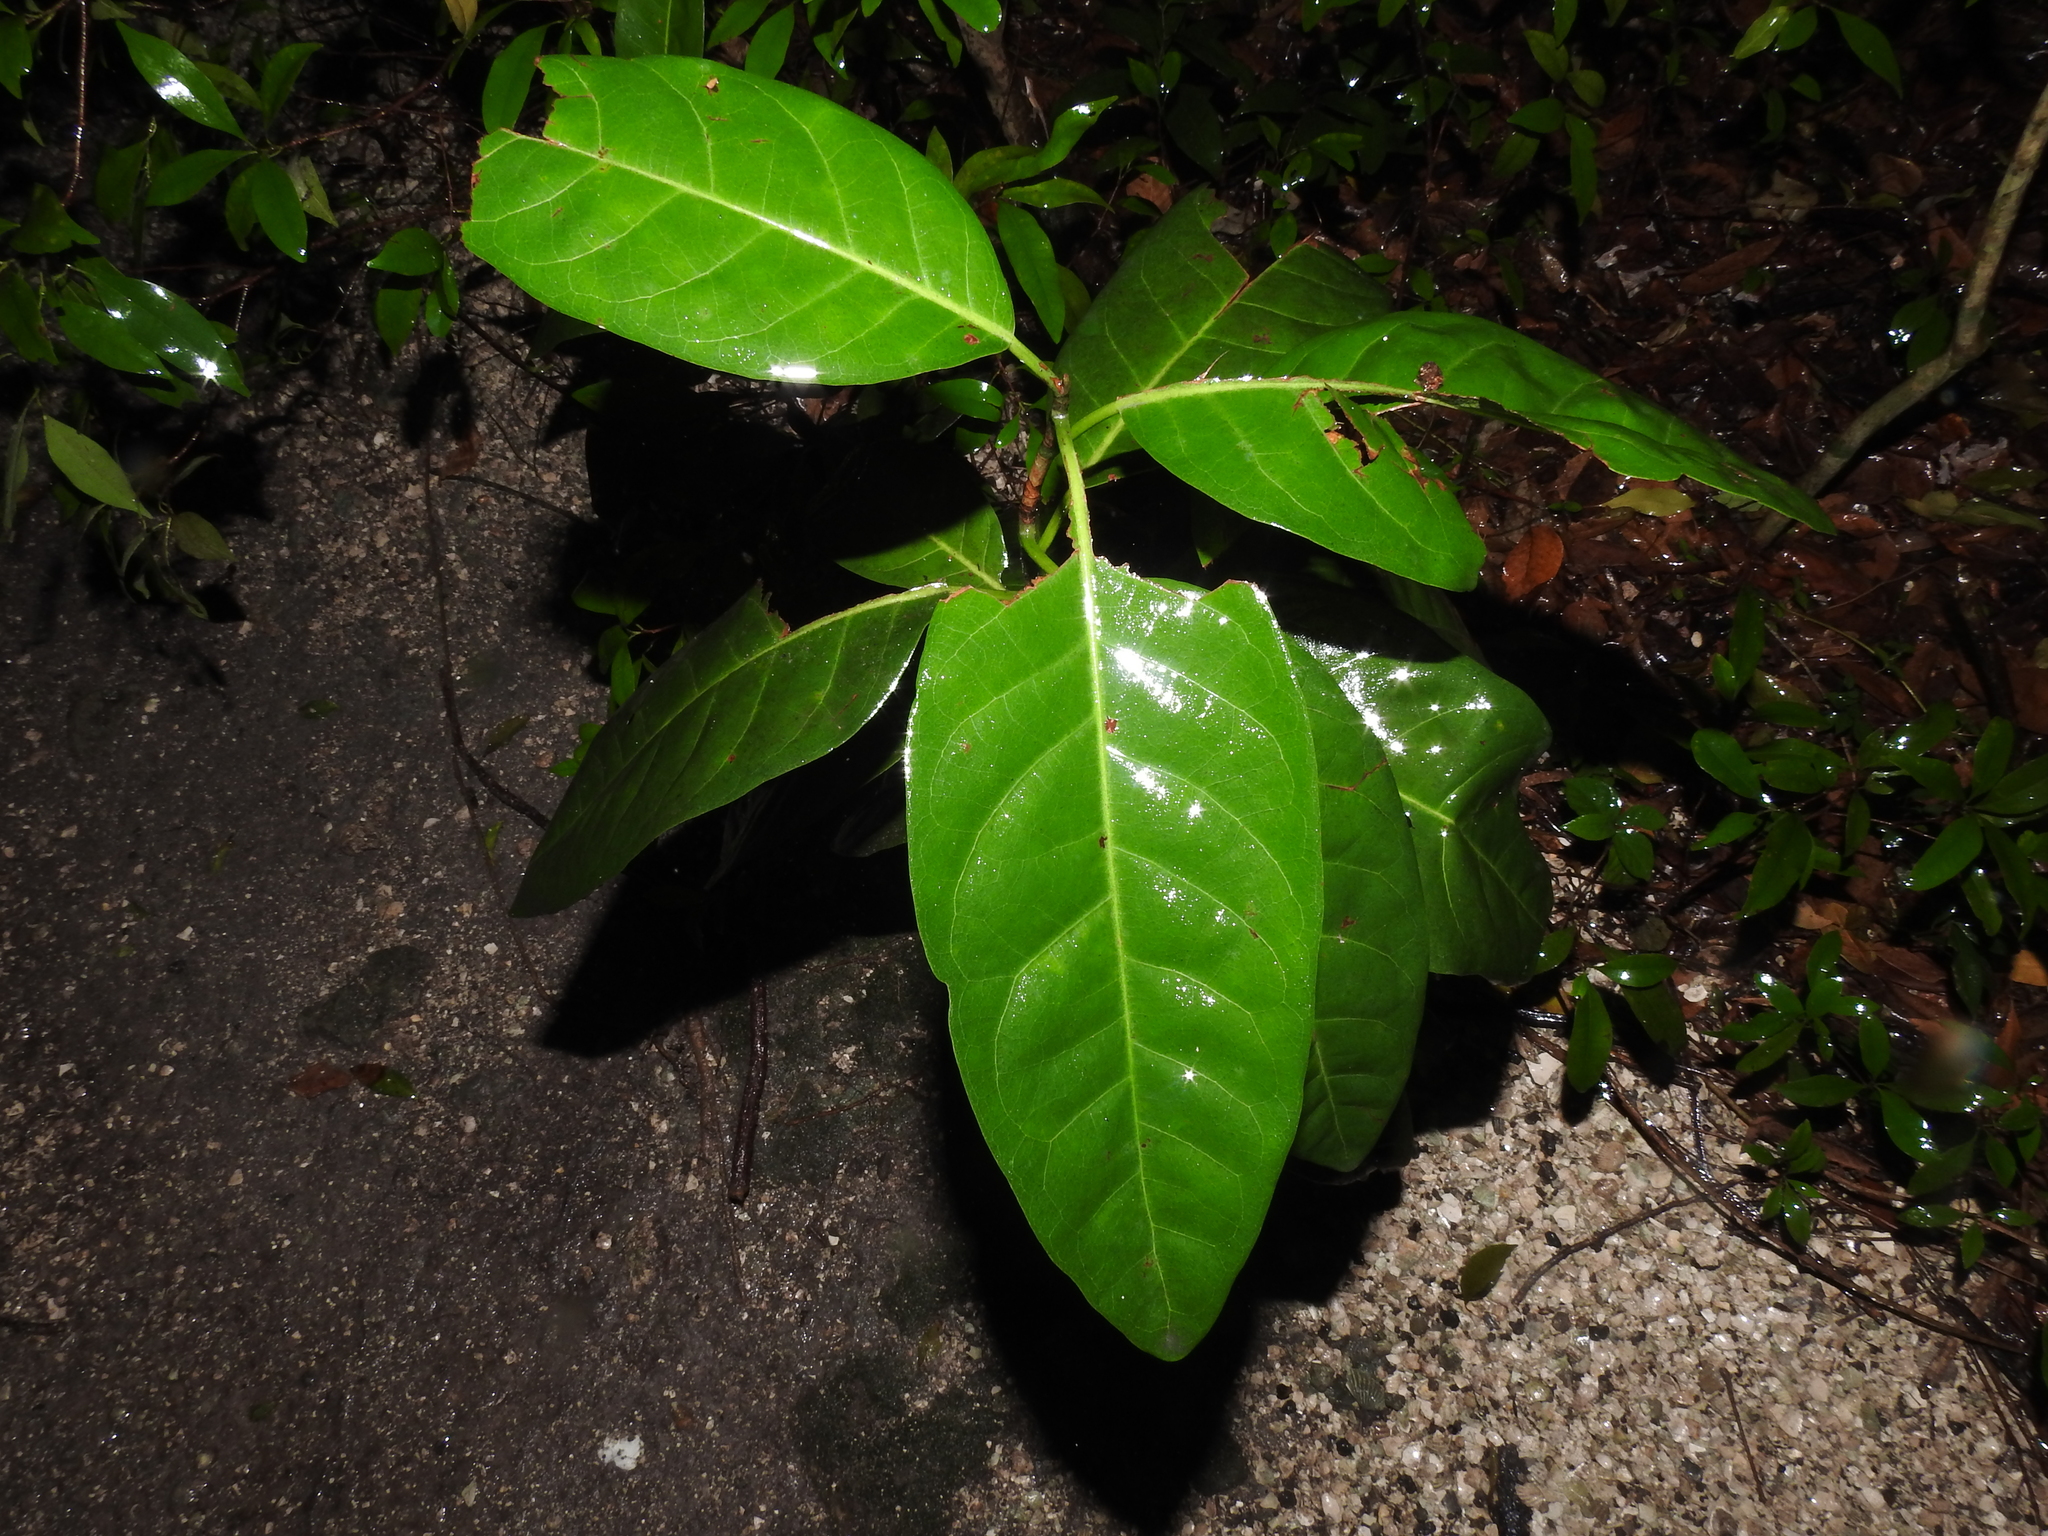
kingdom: Plantae
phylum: Tracheophyta
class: Magnoliopsida
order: Caryophyllales
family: Polygonaceae
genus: Coccoloba
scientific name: Coccoloba diversifolia
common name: Pigeon-plum
